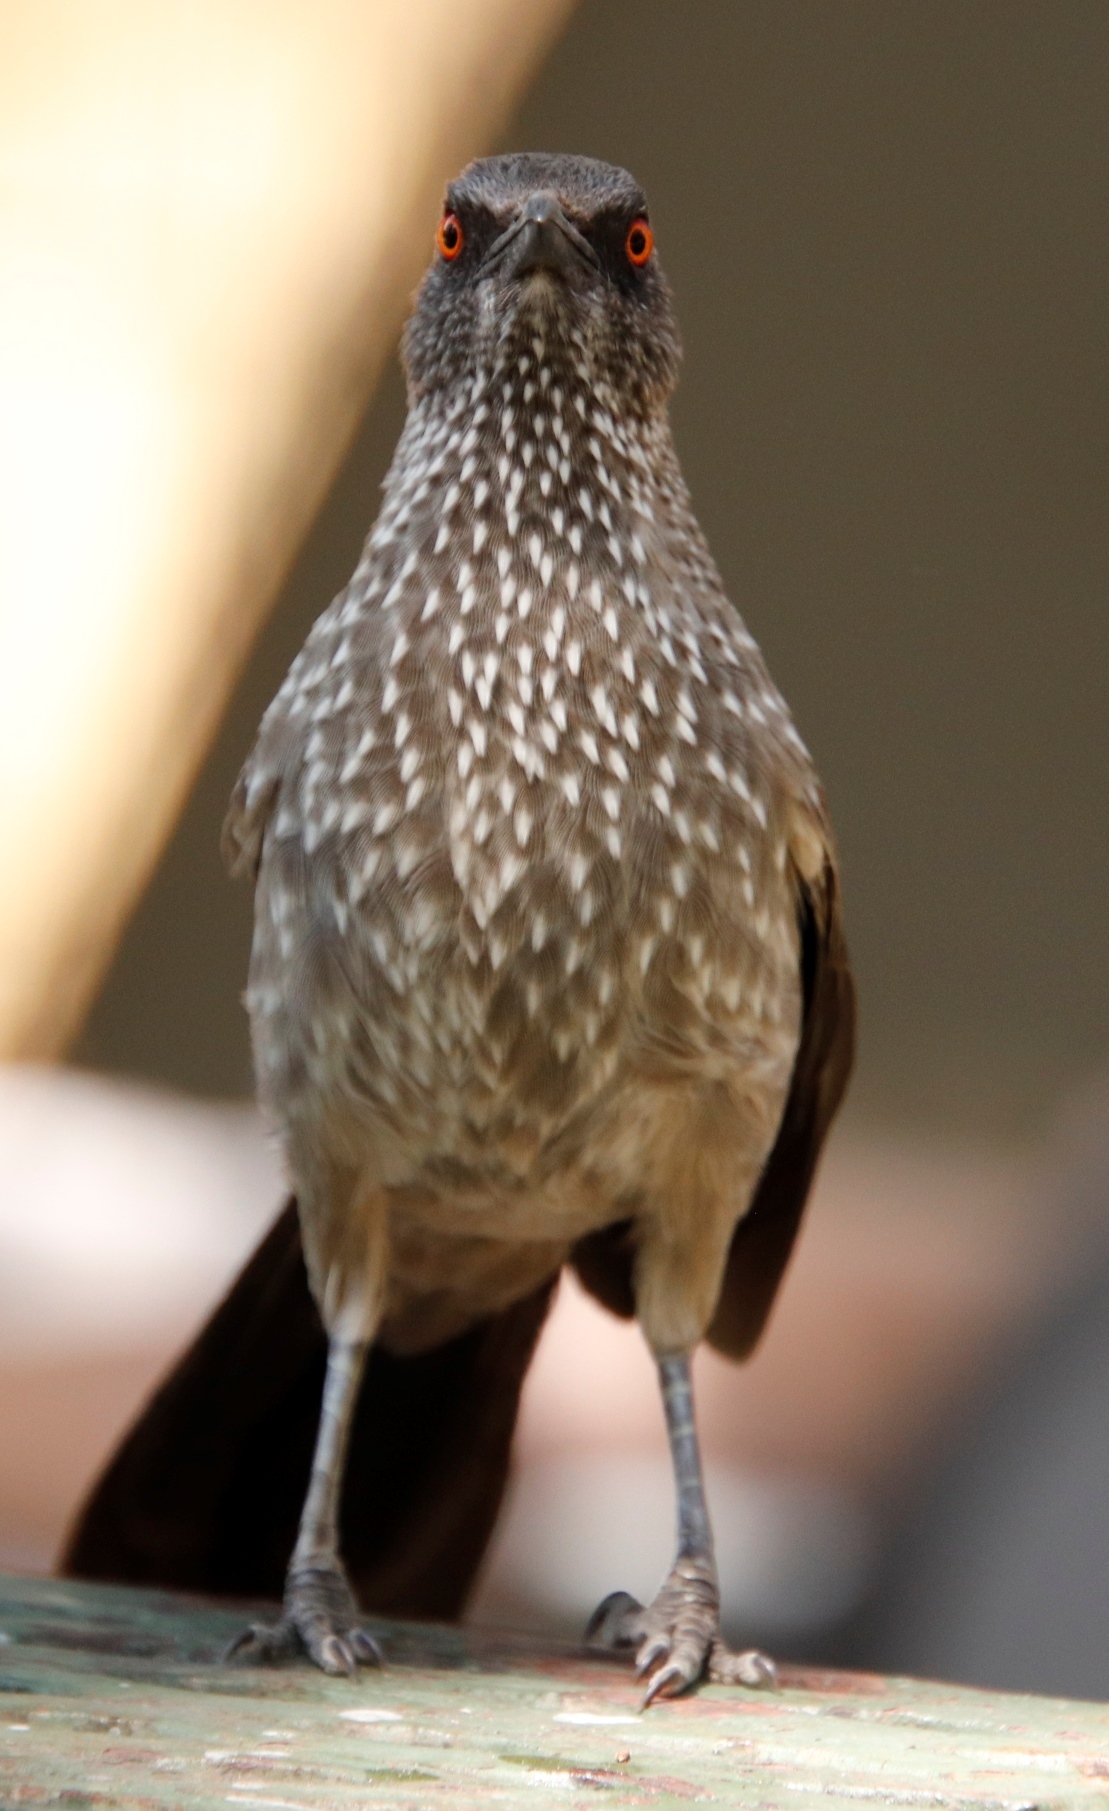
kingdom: Animalia
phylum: Chordata
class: Aves
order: Passeriformes
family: Leiothrichidae
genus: Turdoides
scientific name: Turdoides jardineii
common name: Arrow-marked babbler
